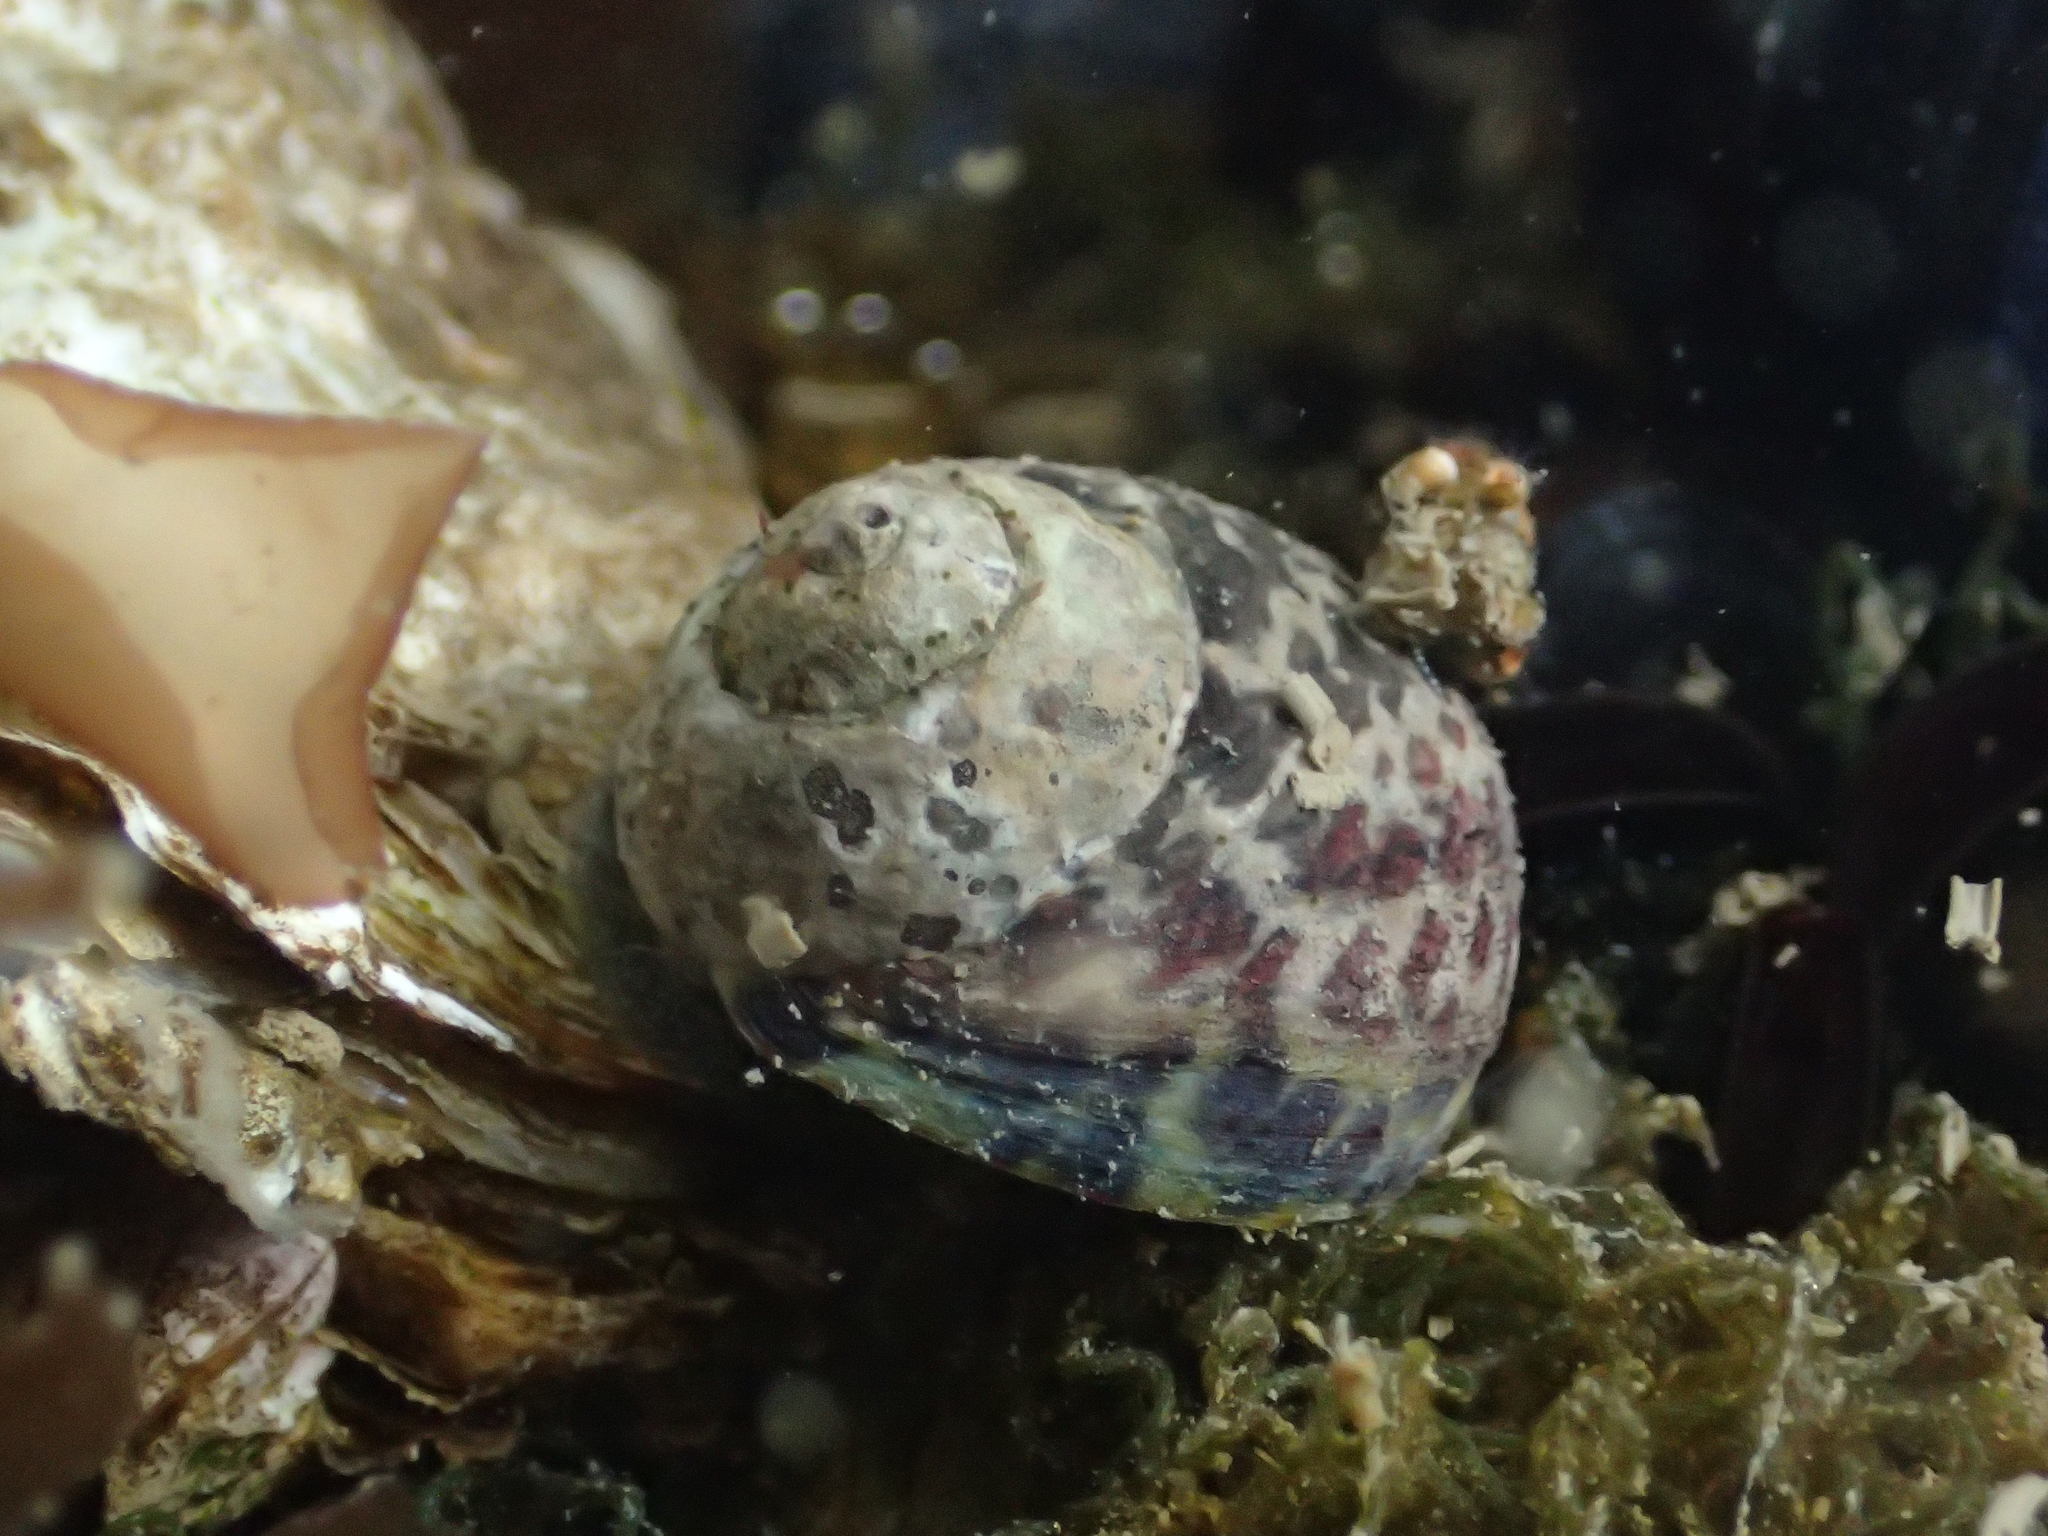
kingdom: Animalia
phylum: Mollusca
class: Gastropoda
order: Trochida
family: Trochidae
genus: Phorcus
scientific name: Phorcus turbinatus
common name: Turbinate monodont
